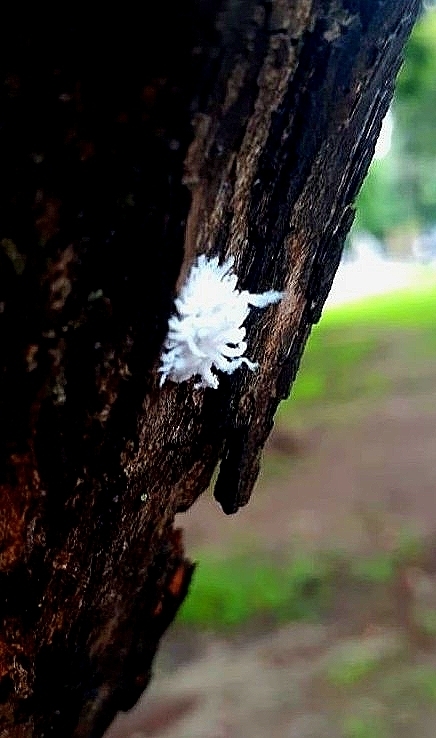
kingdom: Animalia
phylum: Arthropoda
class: Insecta
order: Coleoptera
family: Coccinellidae
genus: Cryptolaemus
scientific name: Cryptolaemus montrouzieri
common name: Mealybug destroyer
